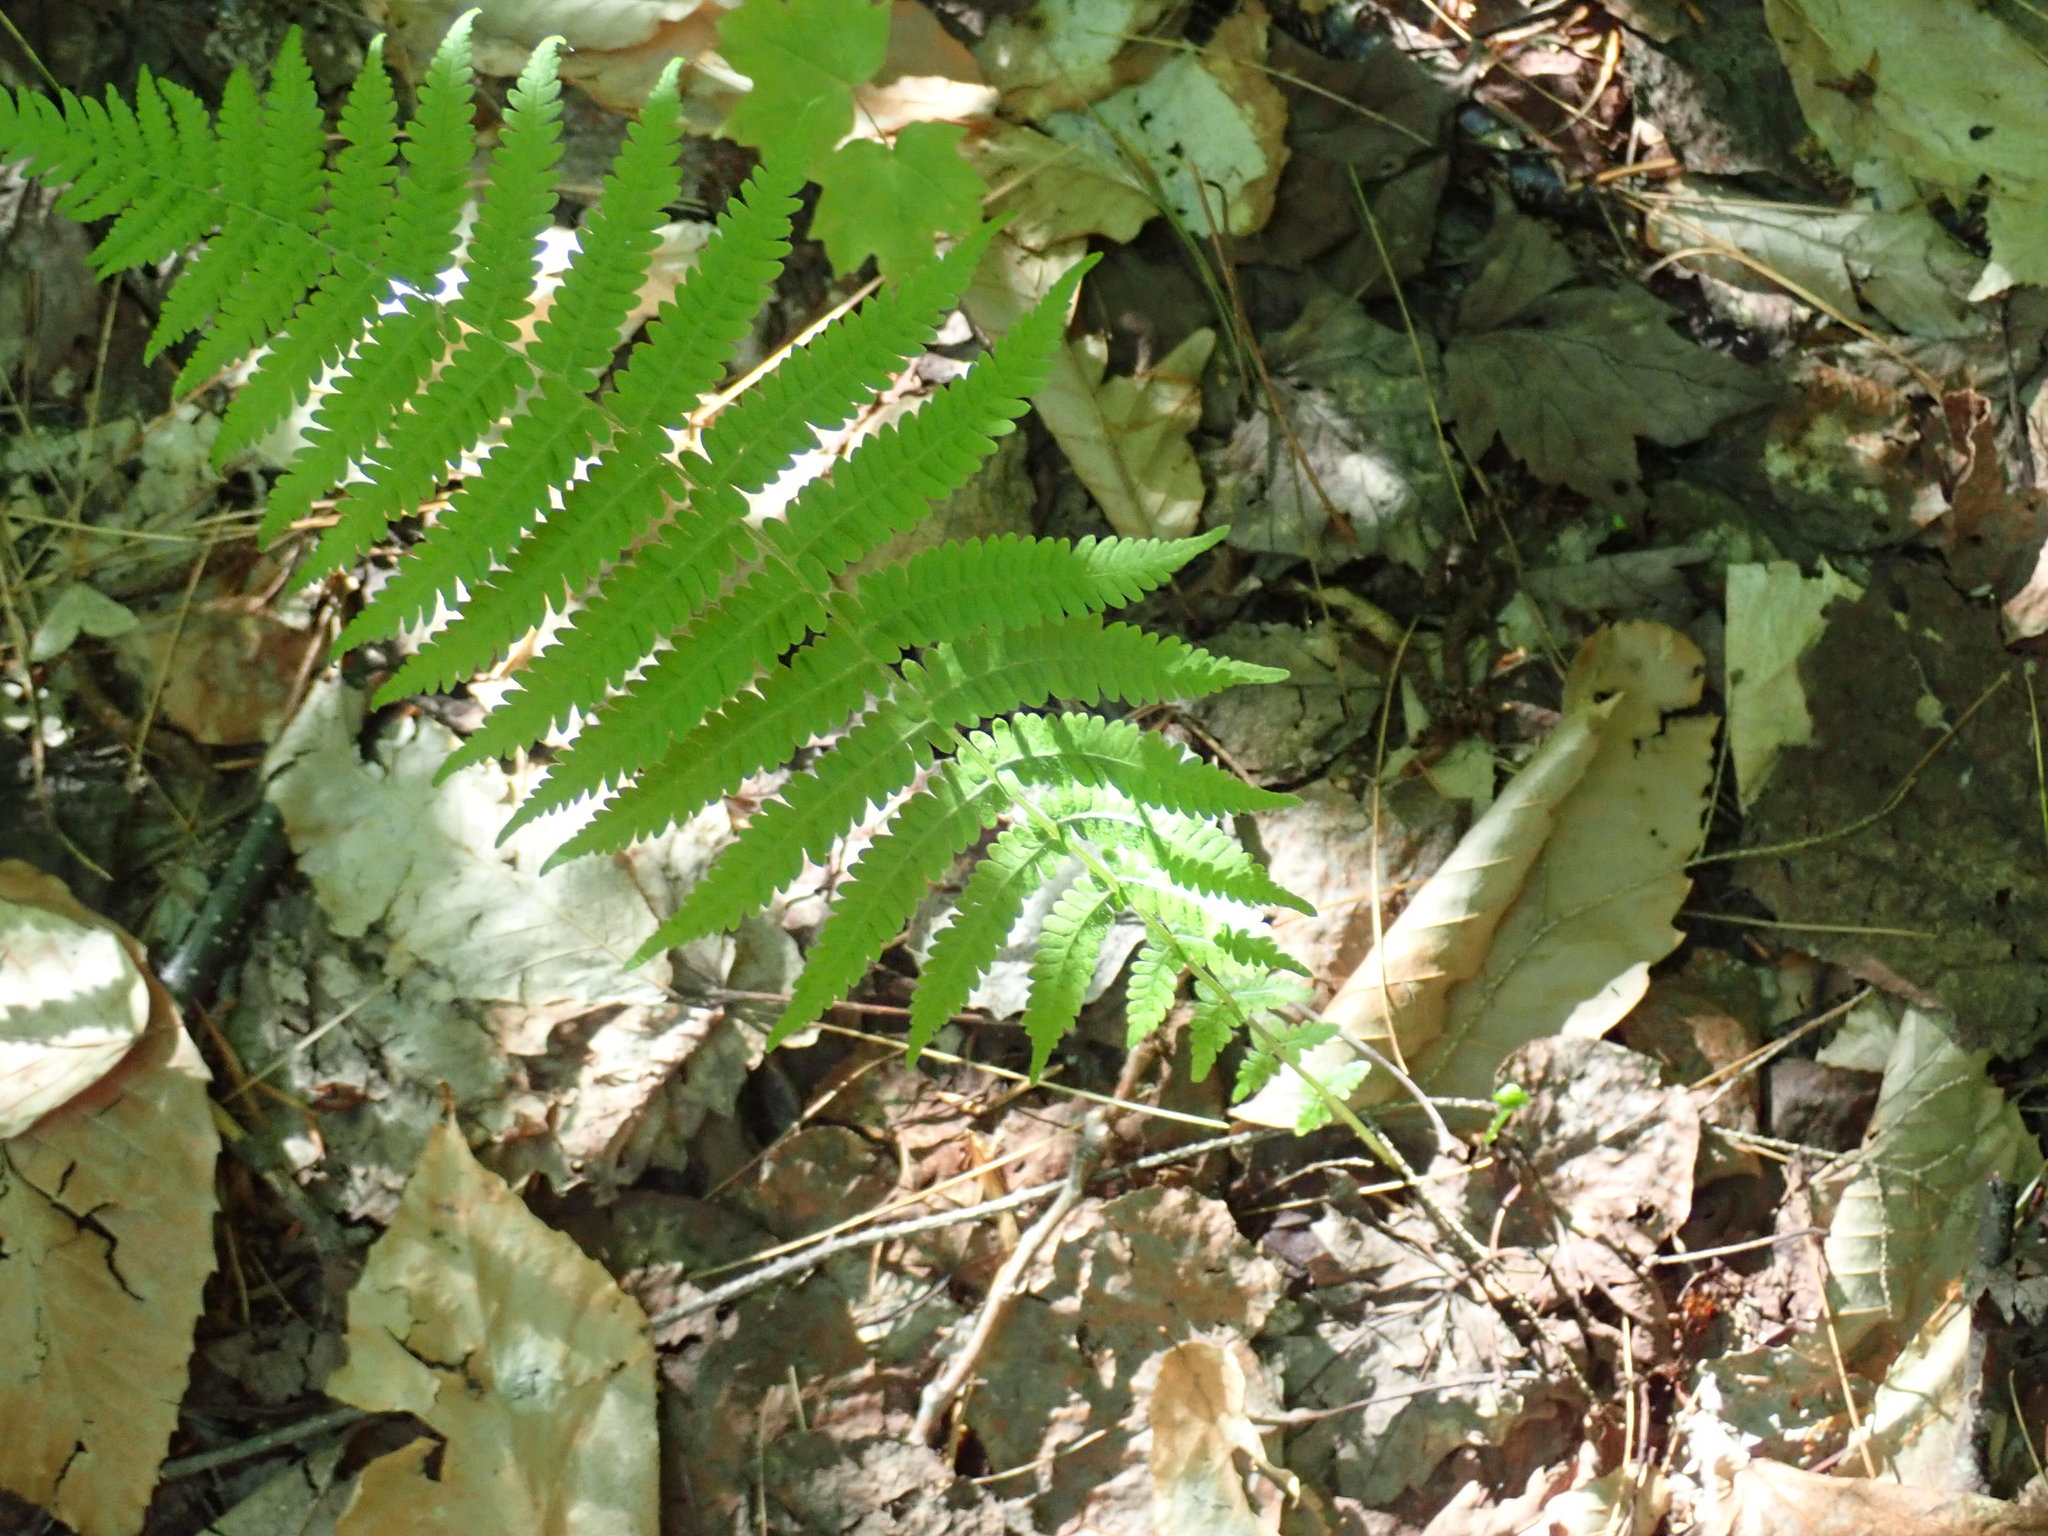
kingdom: Plantae
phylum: Tracheophyta
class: Polypodiopsida
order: Polypodiales
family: Thelypteridaceae
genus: Amauropelta
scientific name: Amauropelta noveboracensis
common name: New york fern
